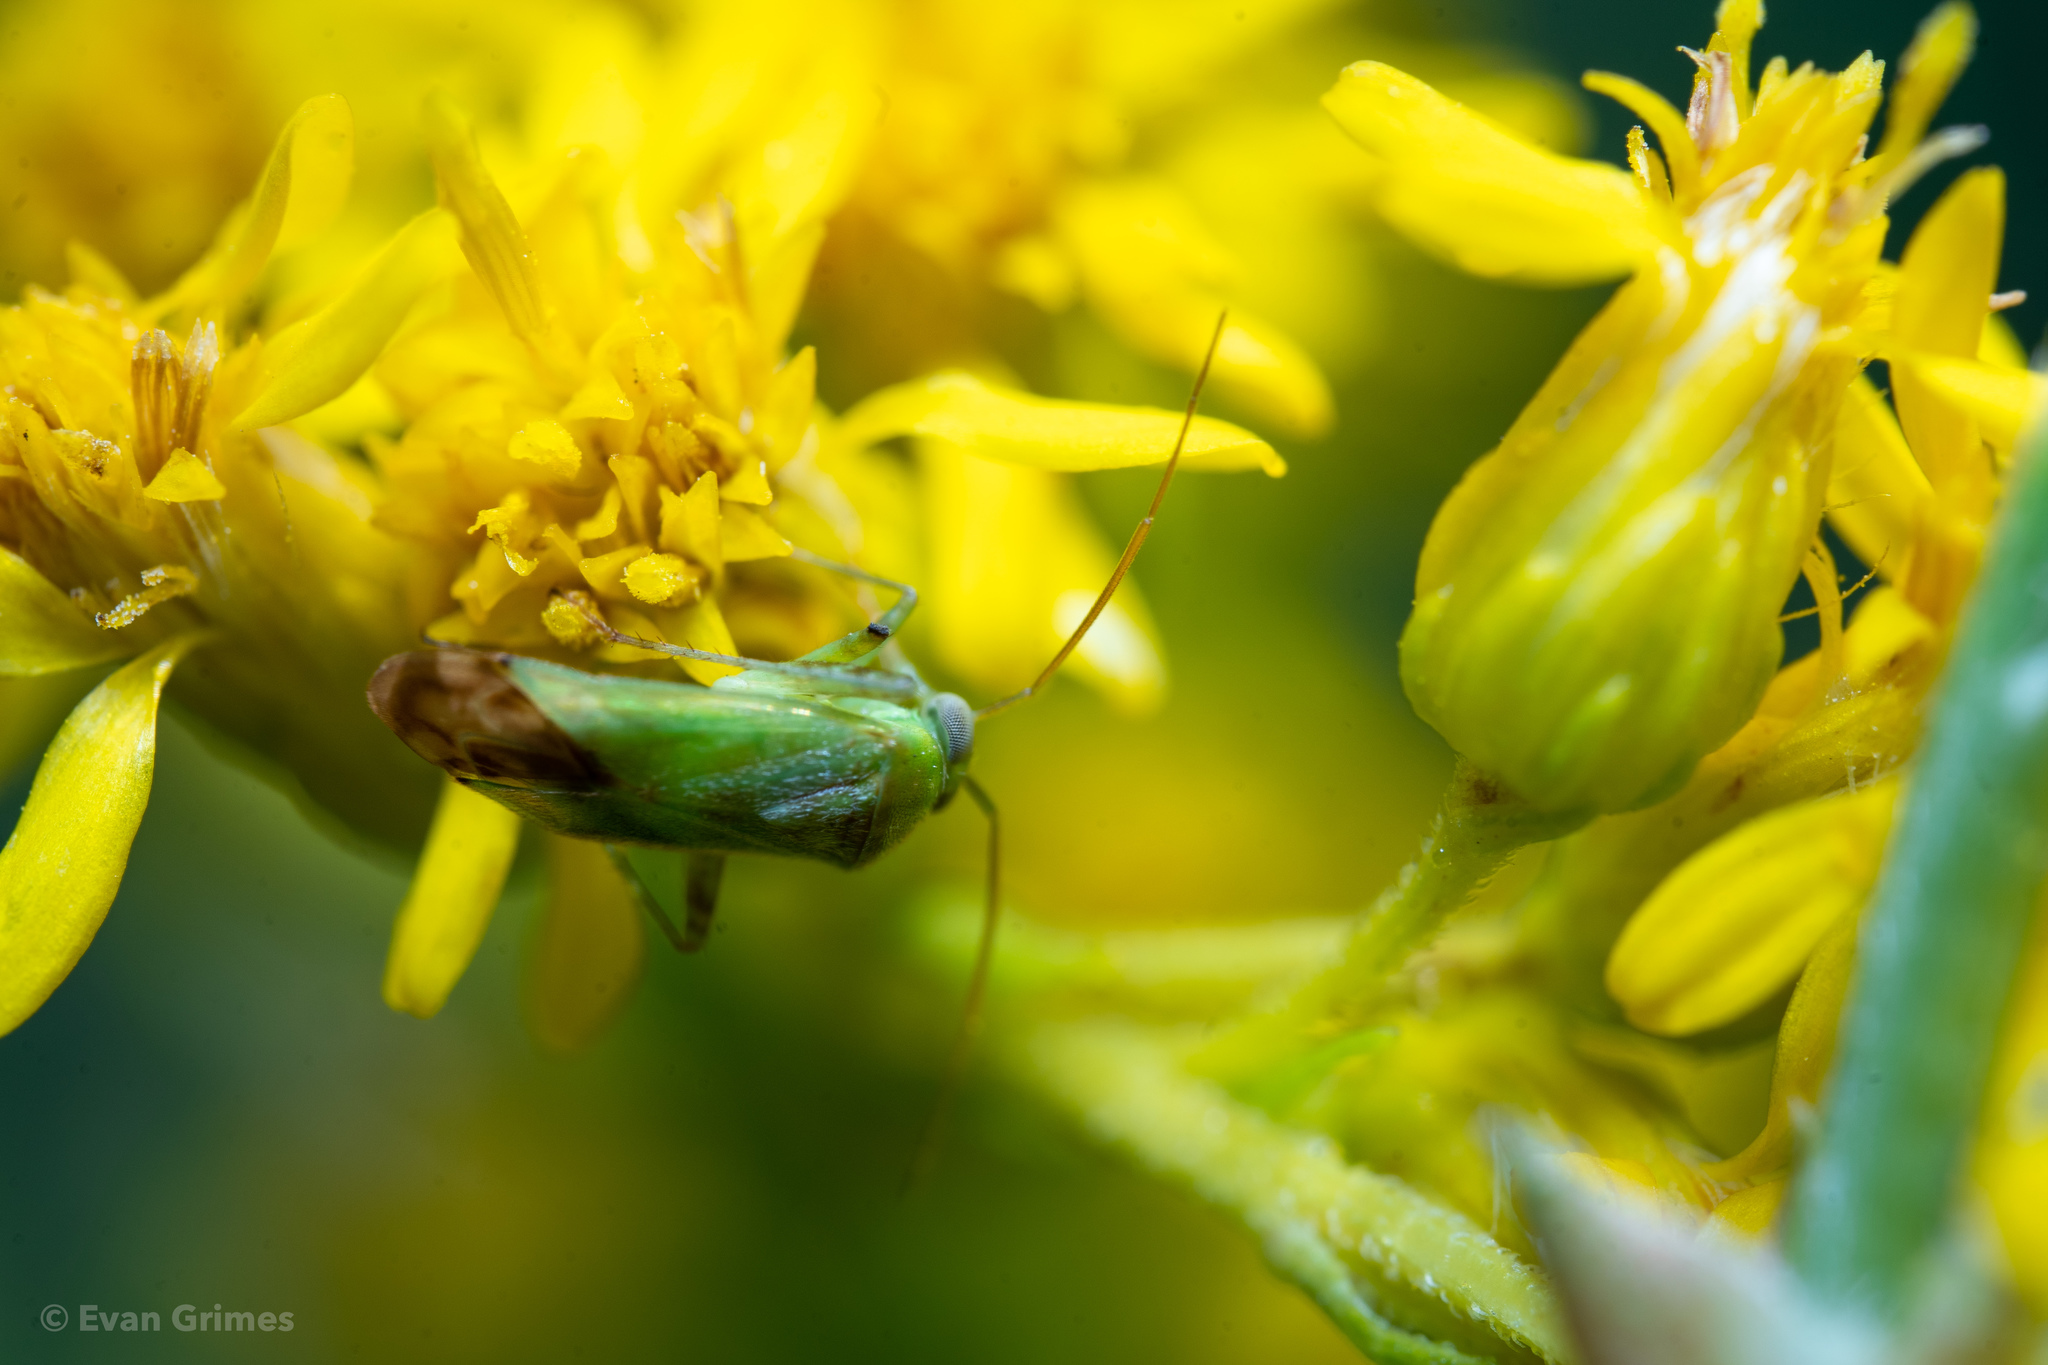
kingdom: Animalia
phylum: Arthropoda
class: Insecta
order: Hemiptera
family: Miridae
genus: Taylorilygus
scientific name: Taylorilygus apicalis
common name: Plant bug
